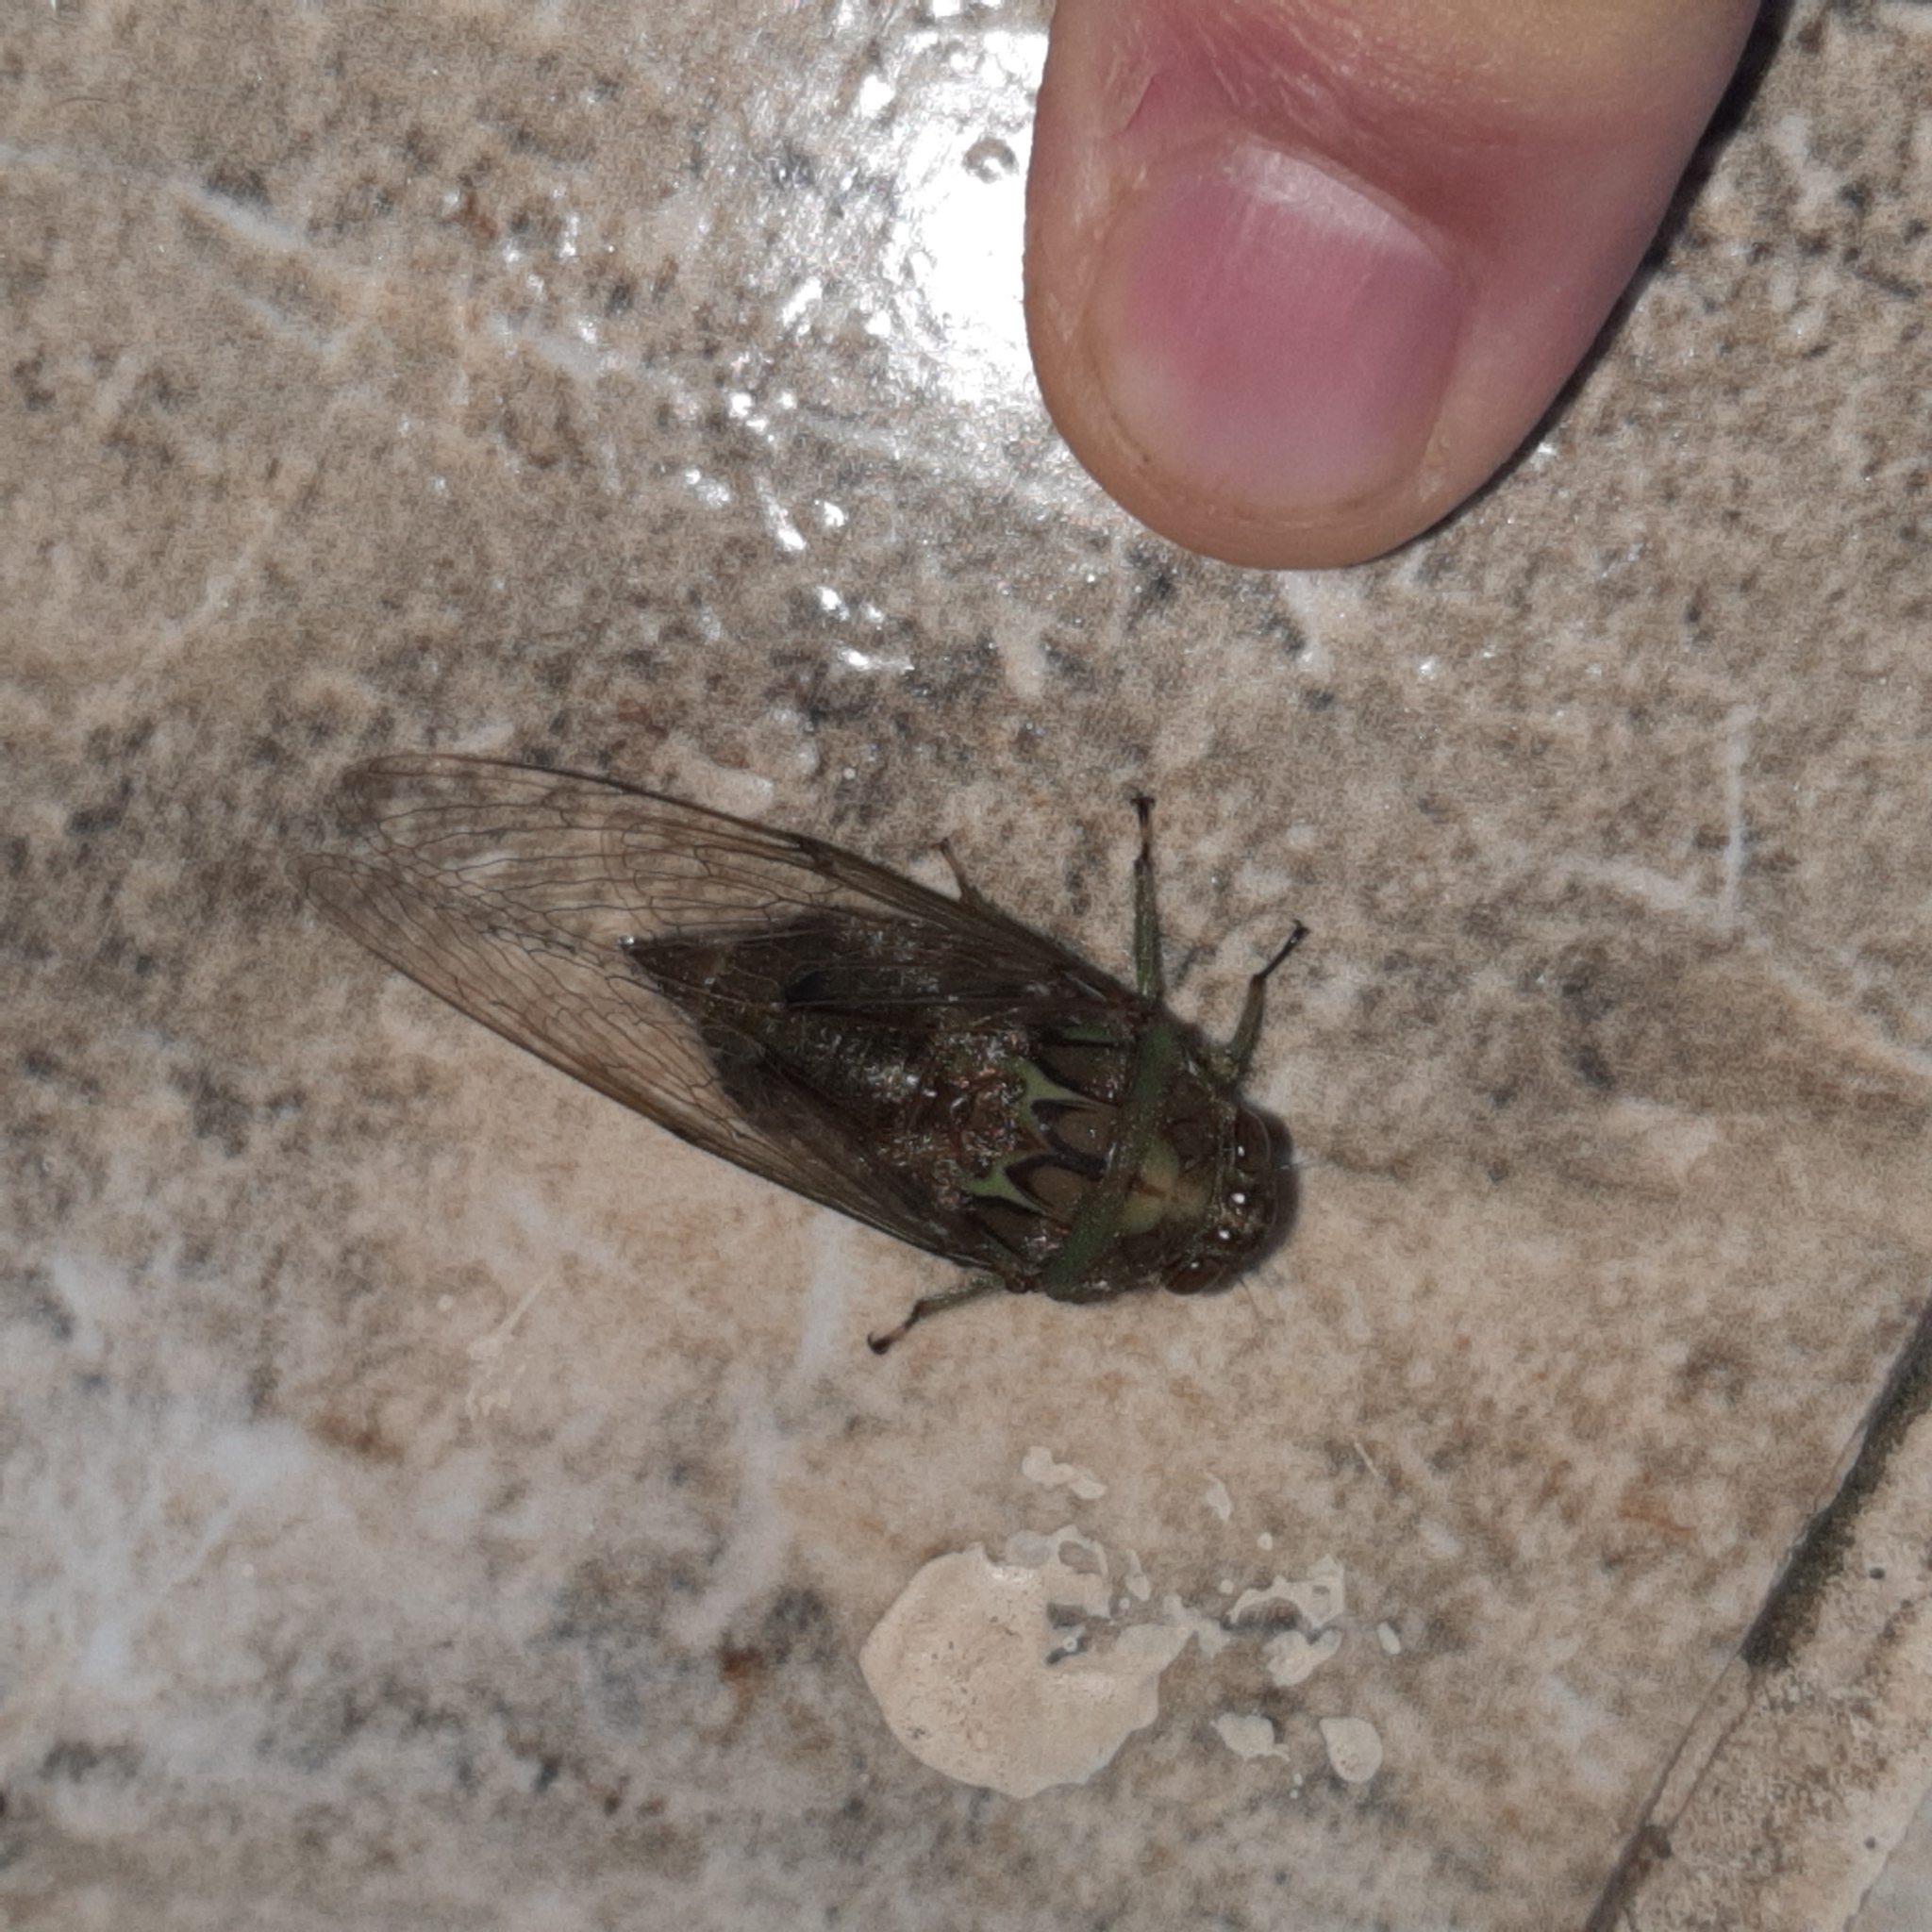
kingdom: Animalia
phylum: Arthropoda
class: Insecta
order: Hemiptera
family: Cicadidae
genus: Carineta
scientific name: Carineta indecora
